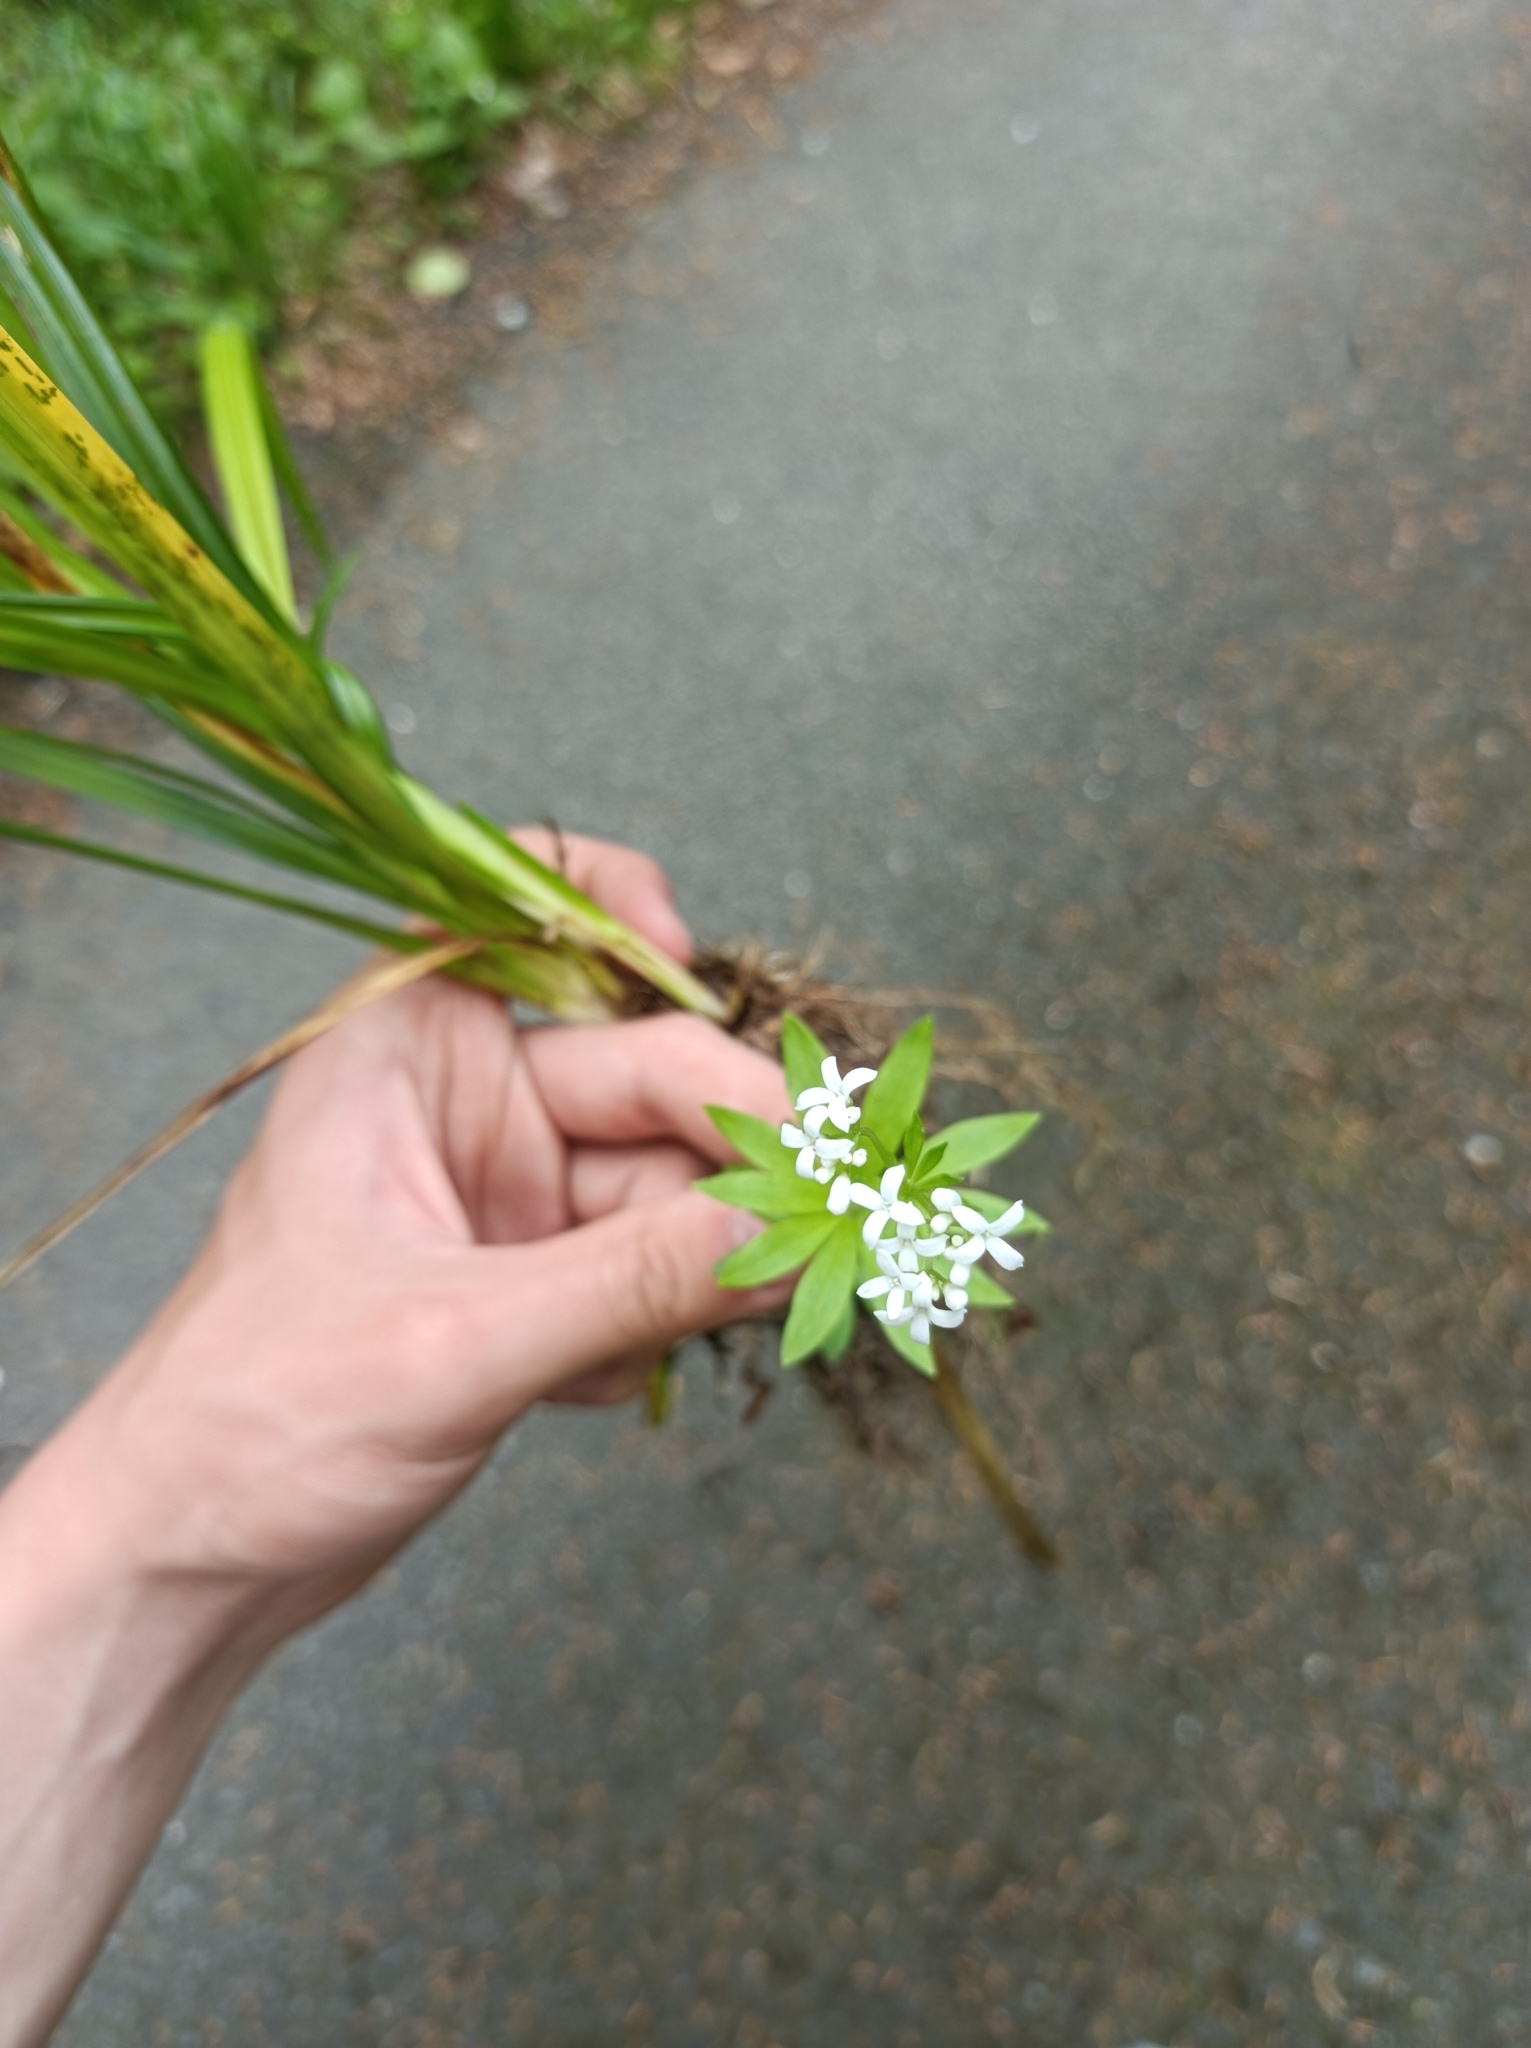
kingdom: Plantae
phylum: Tracheophyta
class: Magnoliopsida
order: Gentianales
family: Rubiaceae
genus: Galium
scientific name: Galium odoratum
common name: Sweet woodruff
